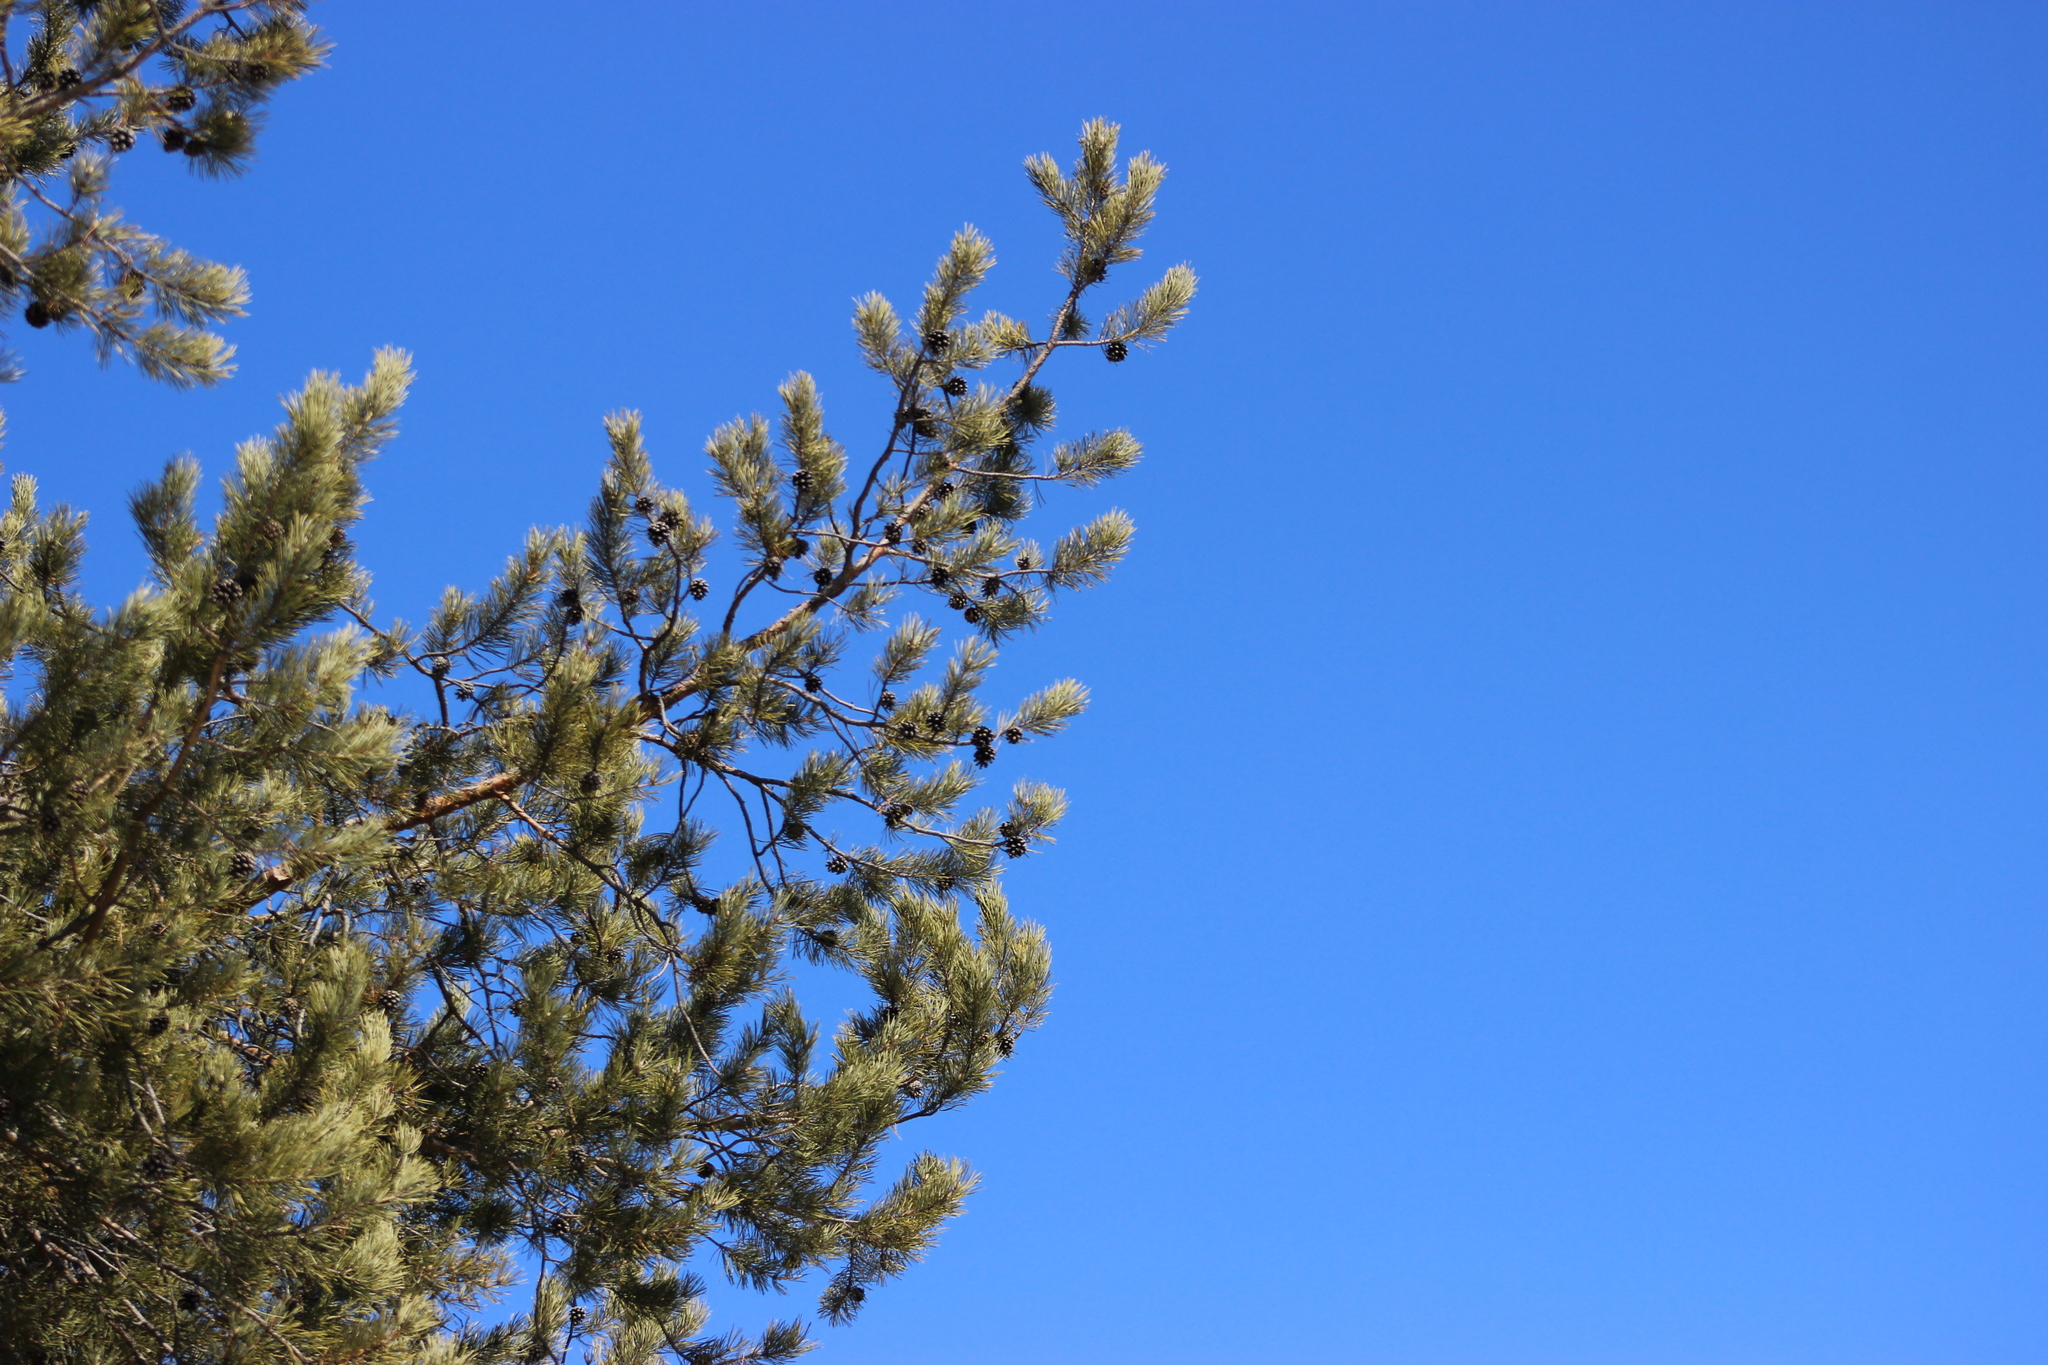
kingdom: Plantae
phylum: Tracheophyta
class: Pinopsida
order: Pinales
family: Pinaceae
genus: Pinus
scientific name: Pinus sylvestris
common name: Scots pine
